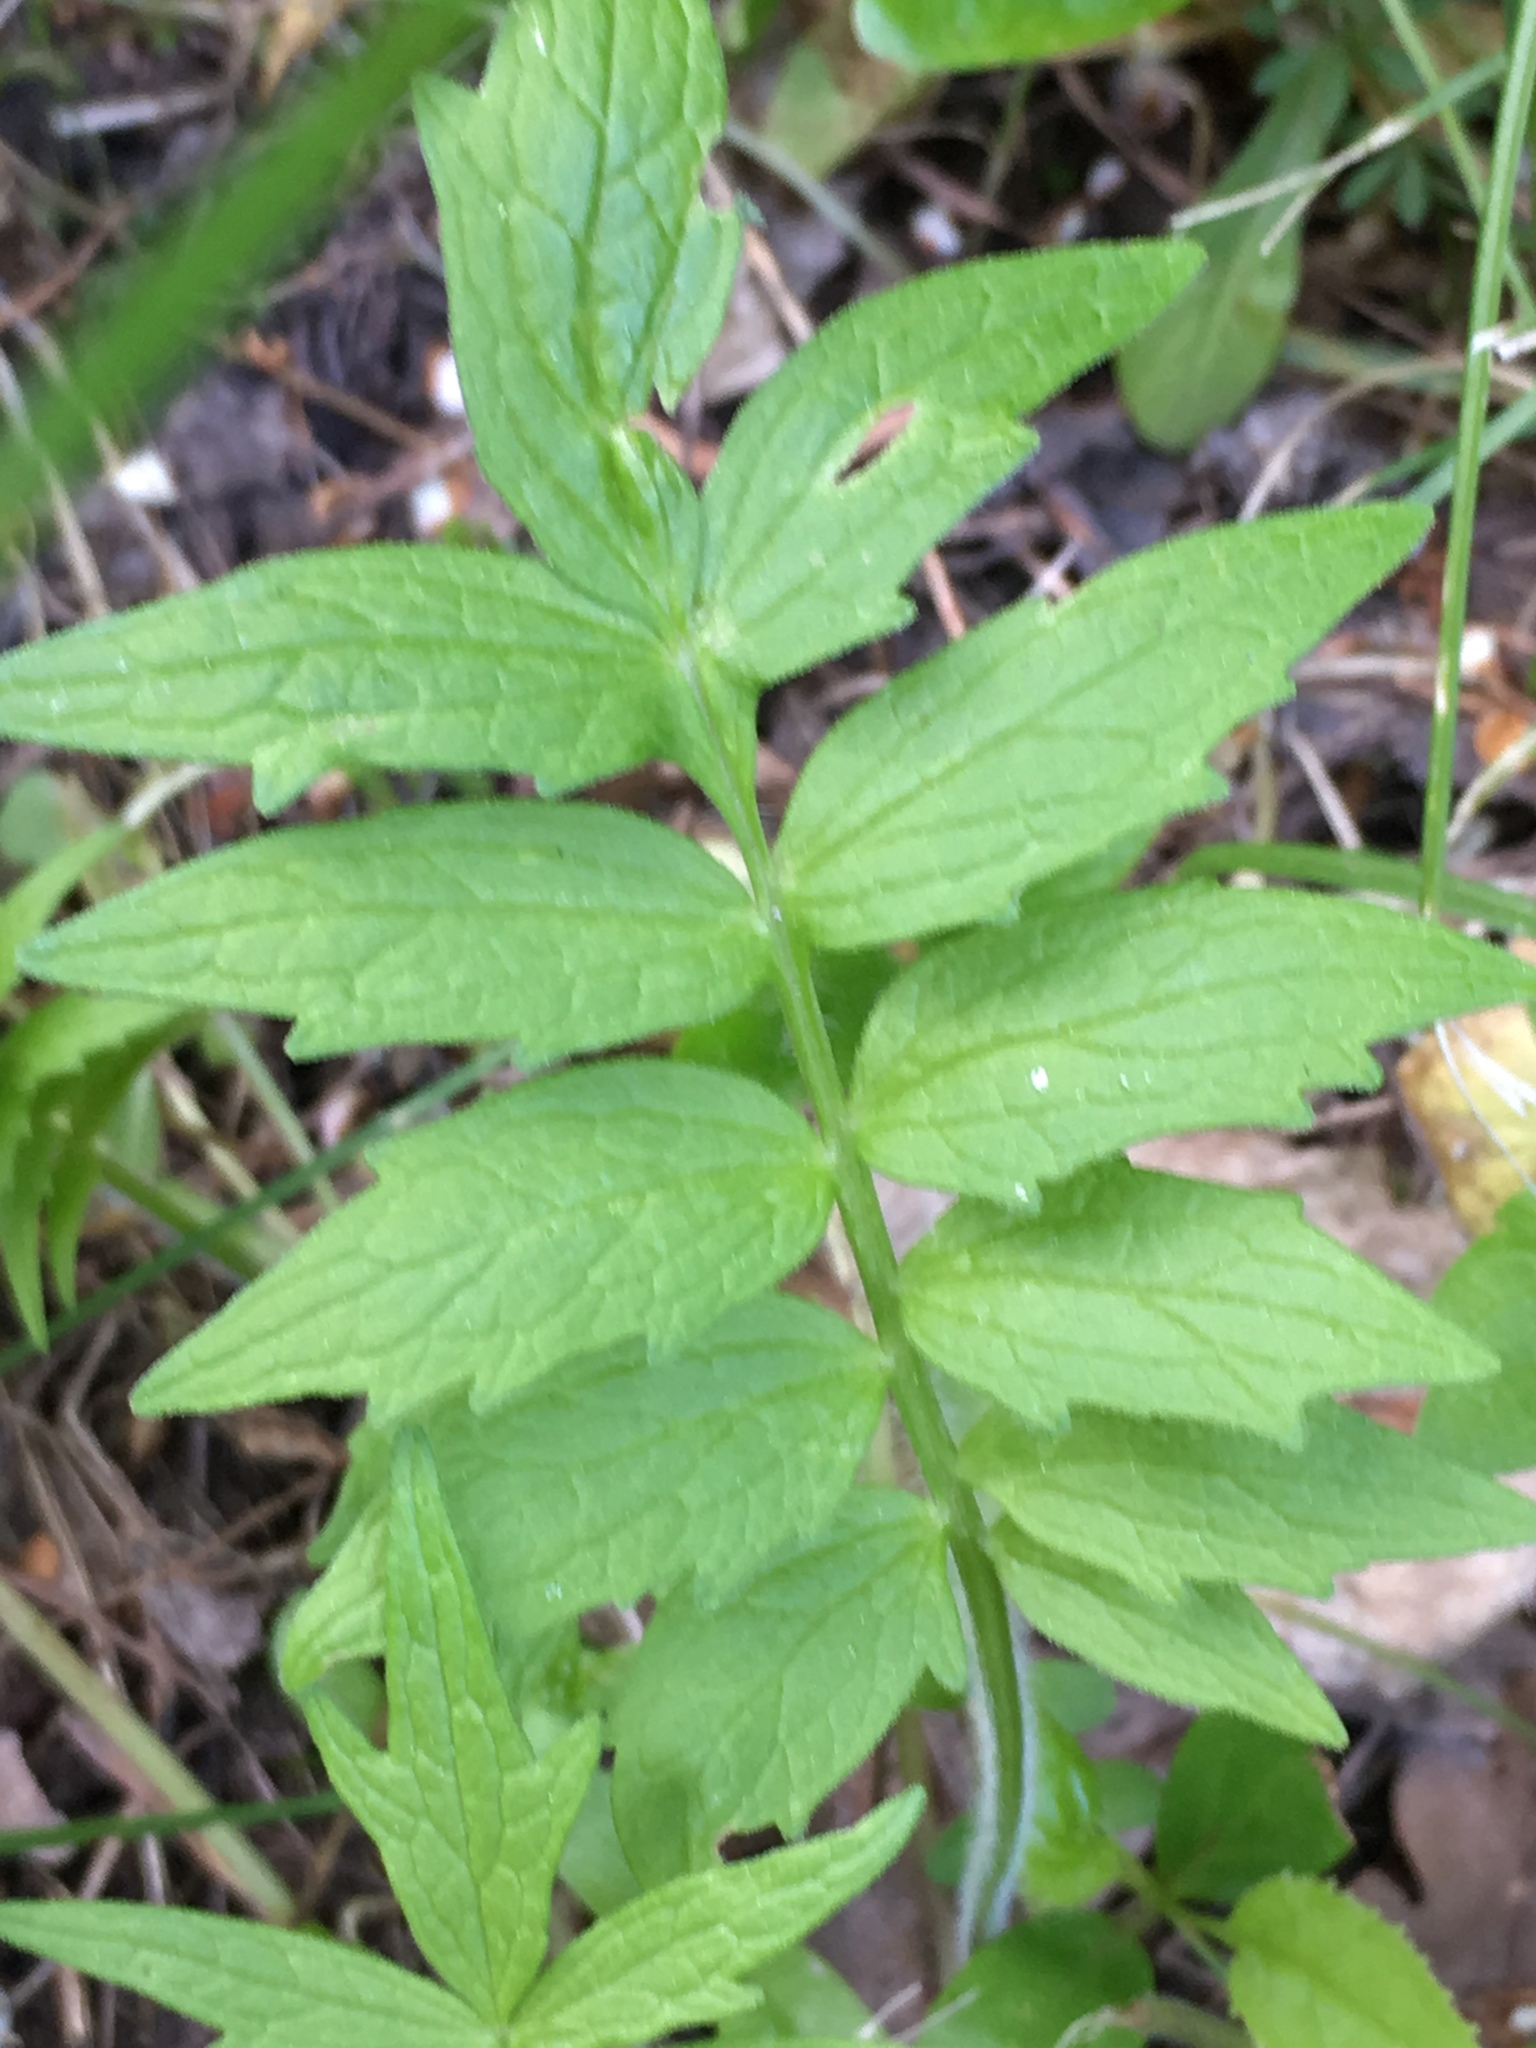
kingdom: Plantae
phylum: Tracheophyta
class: Magnoliopsida
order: Dipsacales
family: Caprifoliaceae
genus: Valeriana
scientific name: Valeriana officinalis
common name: Common valerian
